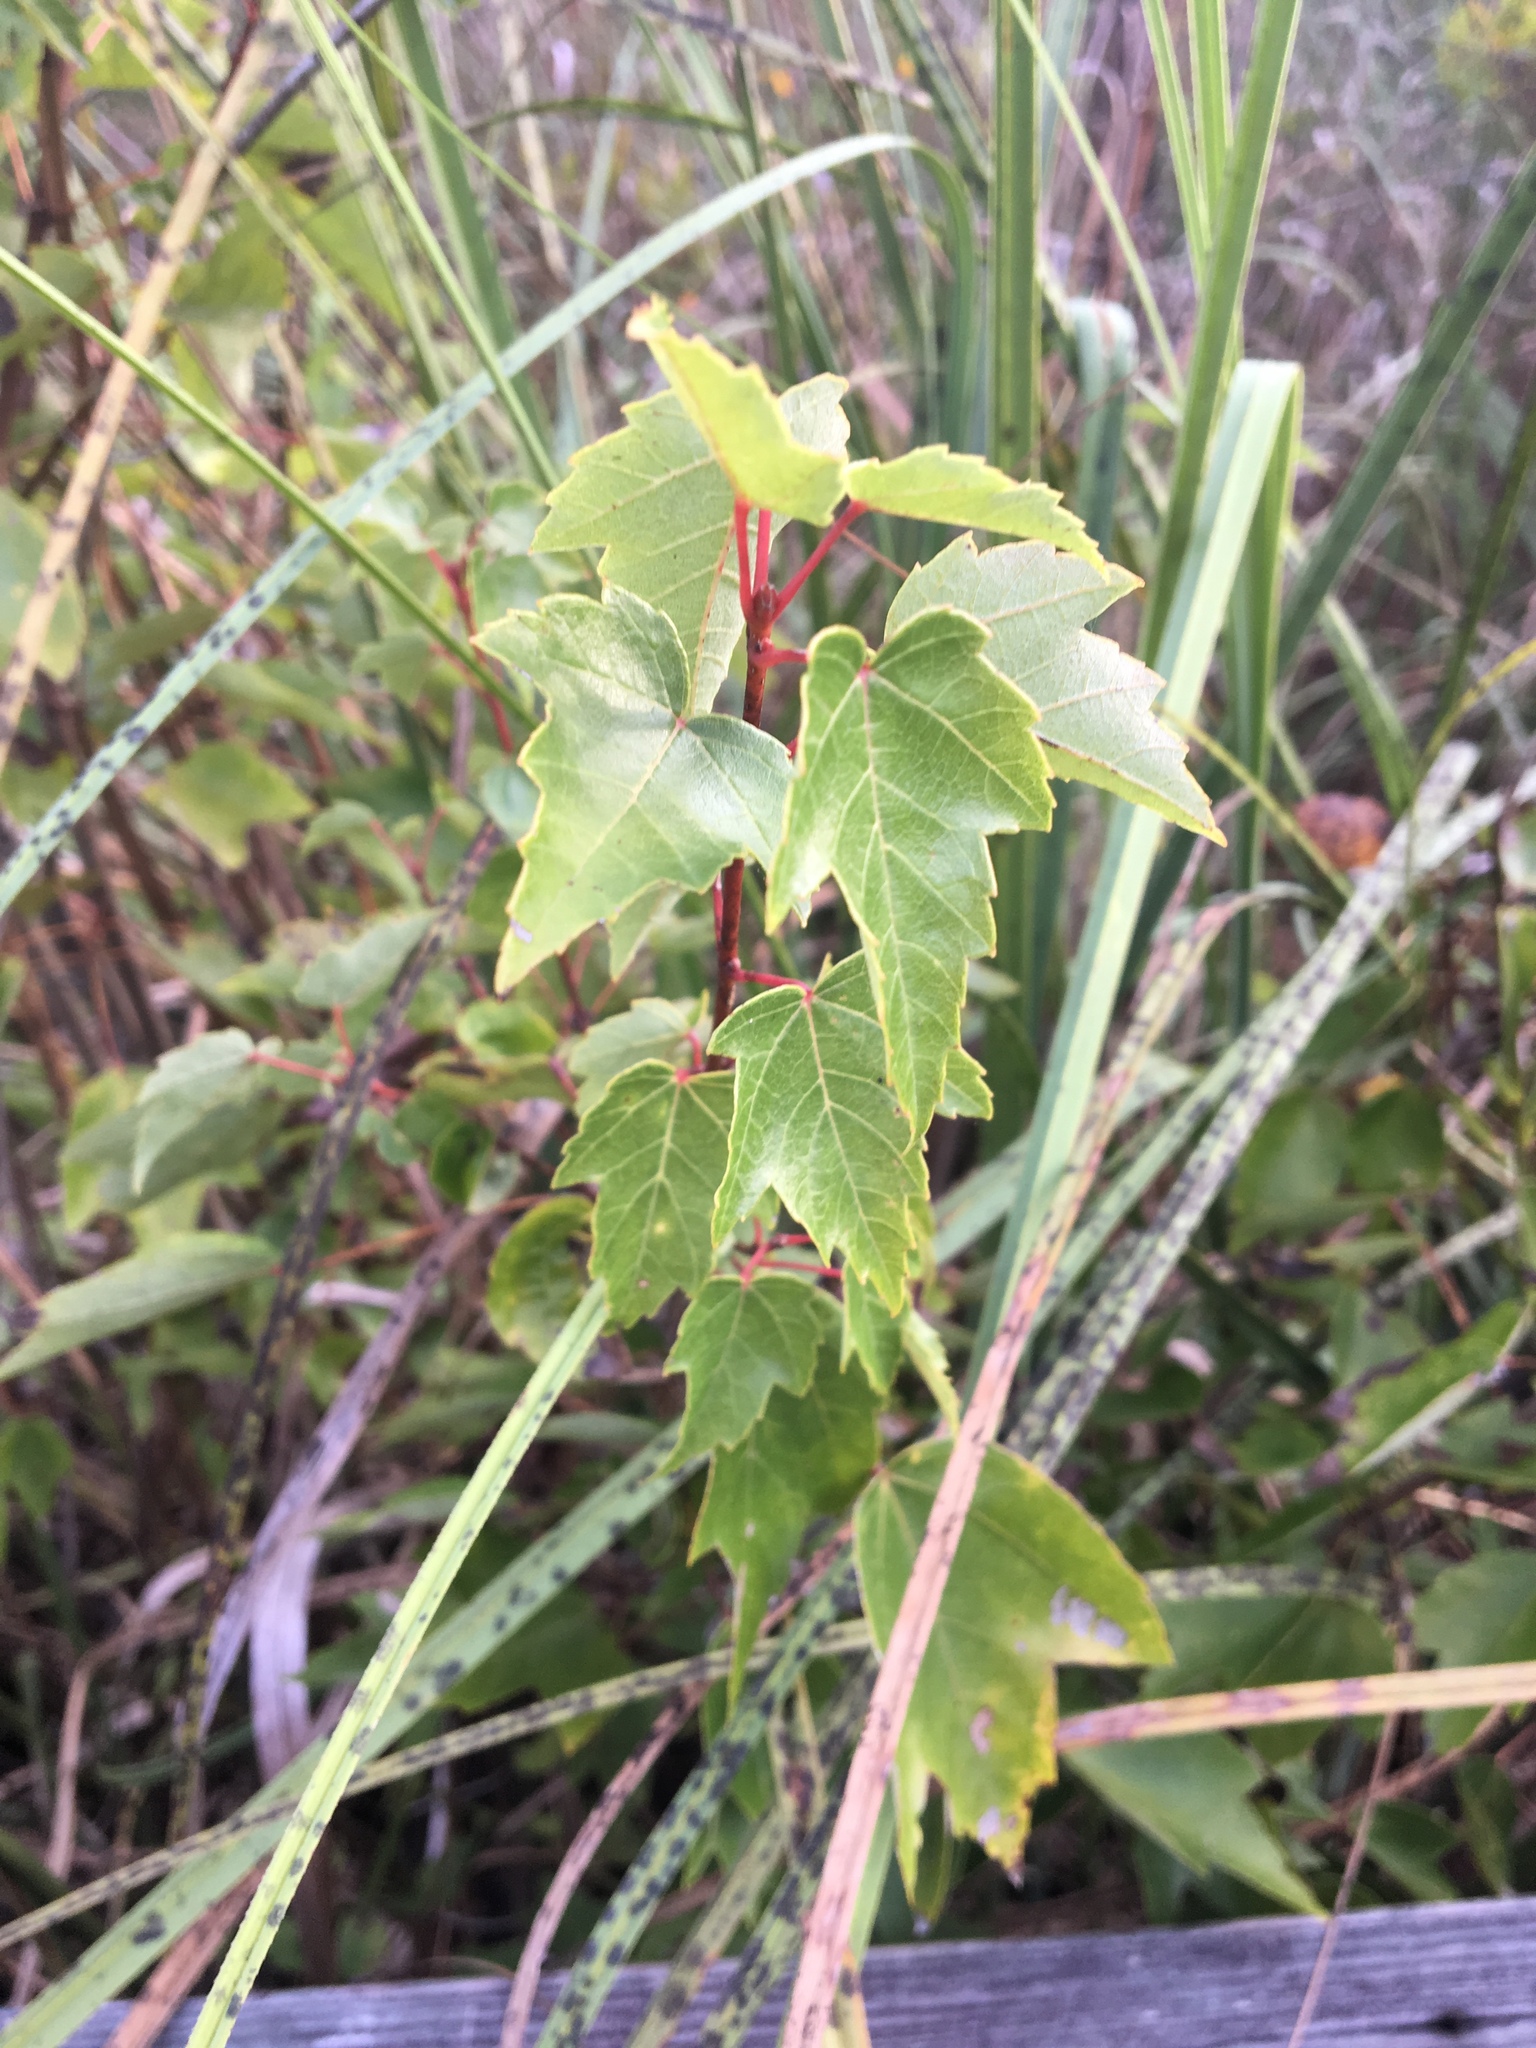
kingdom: Plantae
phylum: Tracheophyta
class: Magnoliopsida
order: Sapindales
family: Sapindaceae
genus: Acer
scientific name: Acer rubrum
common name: Red maple
